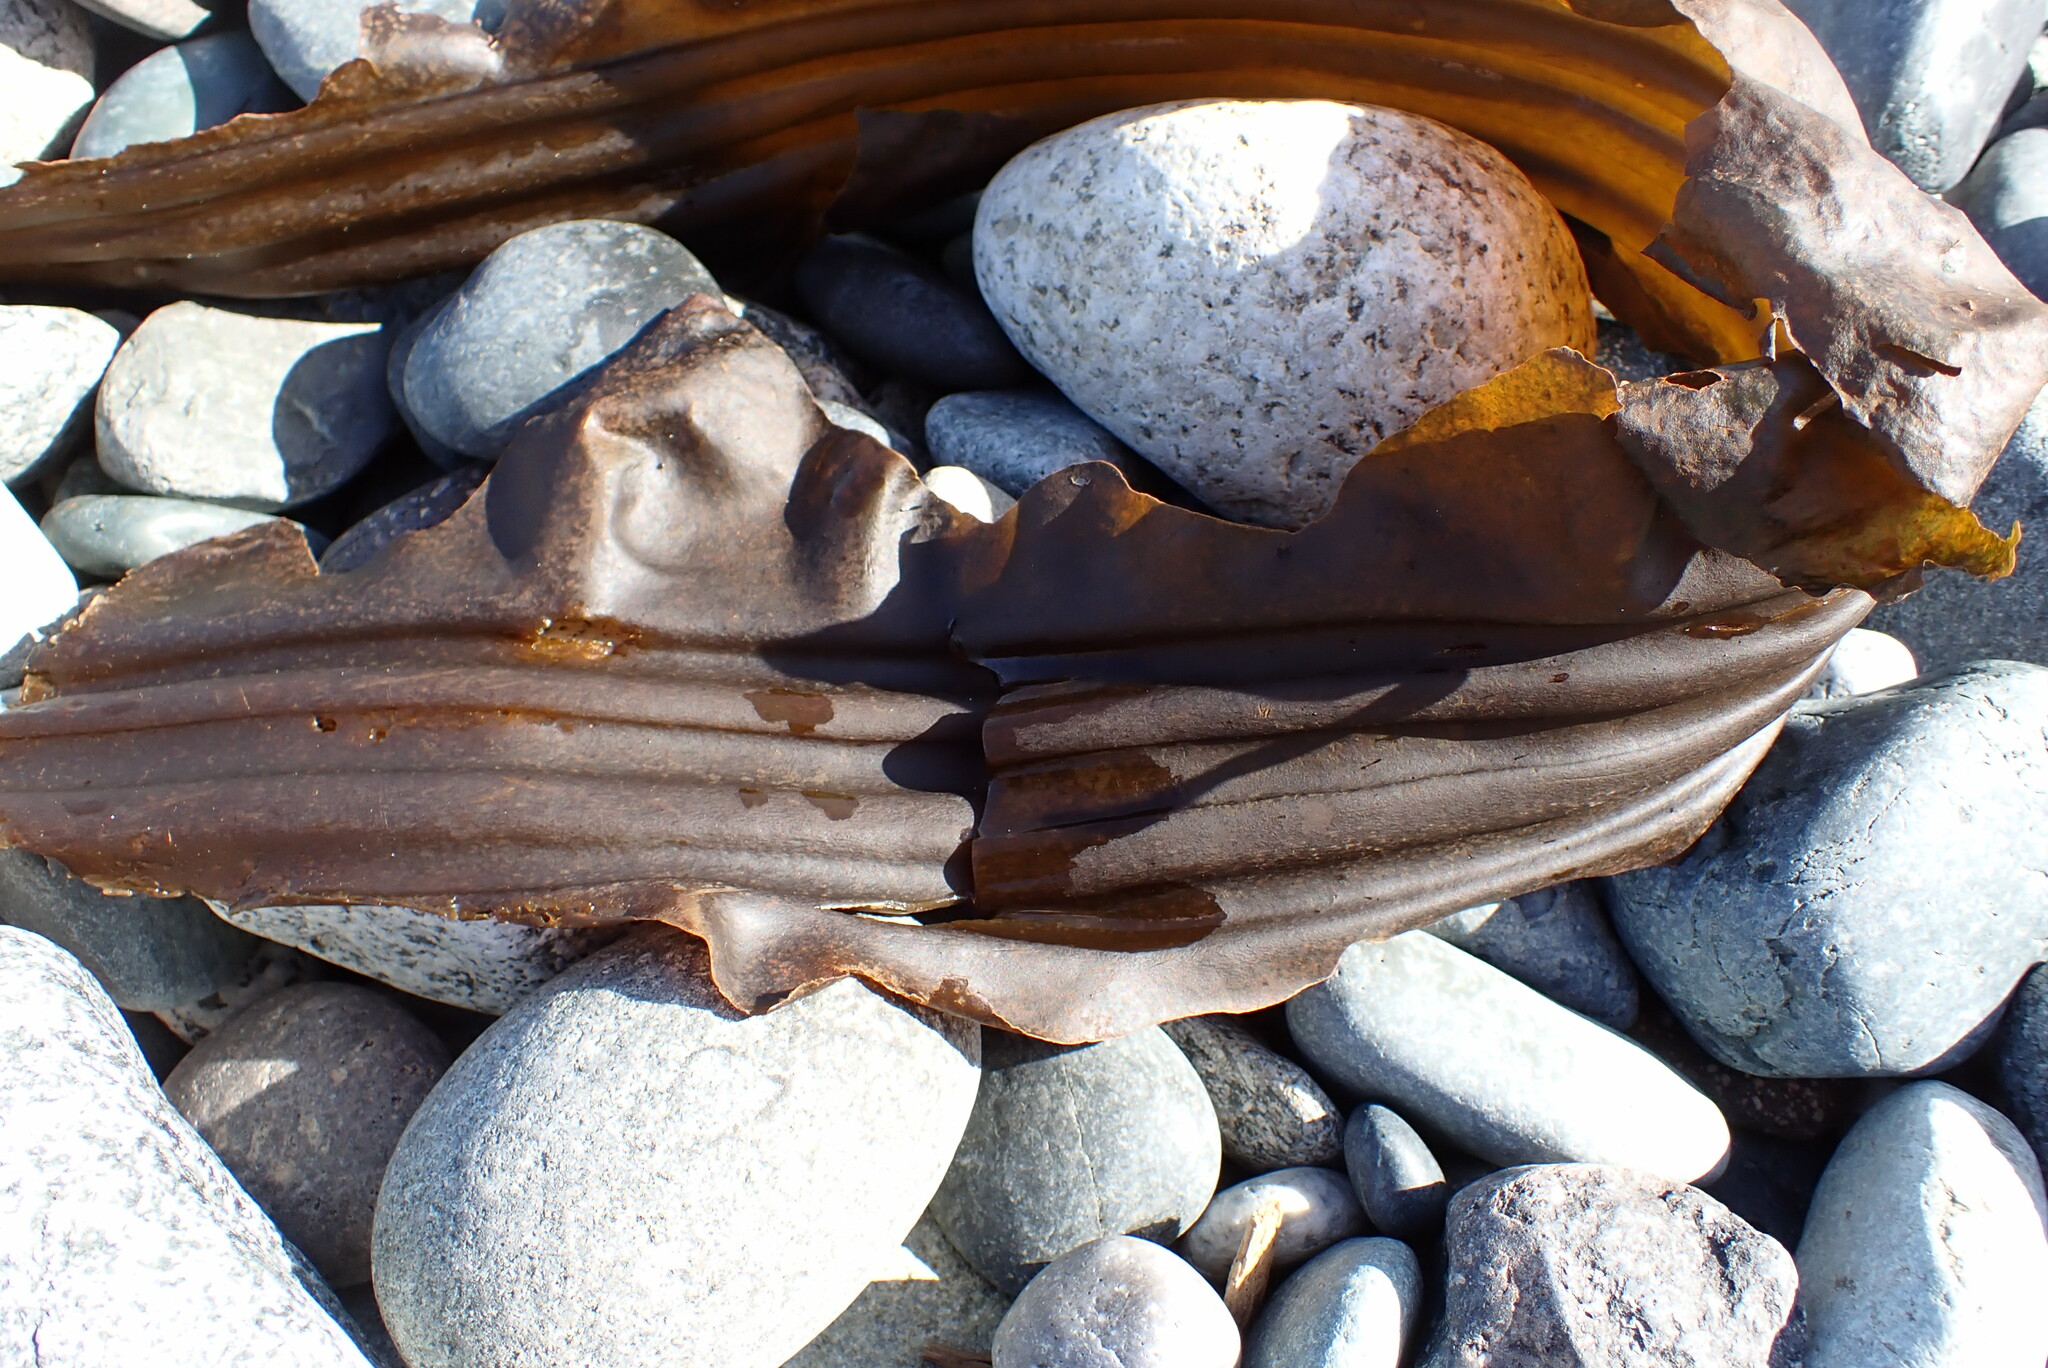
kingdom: Chromista
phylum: Ochrophyta
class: Phaeophyceae
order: Laminariales
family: Laminariaceae
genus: Cymathaere
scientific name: Cymathaere triplicata
